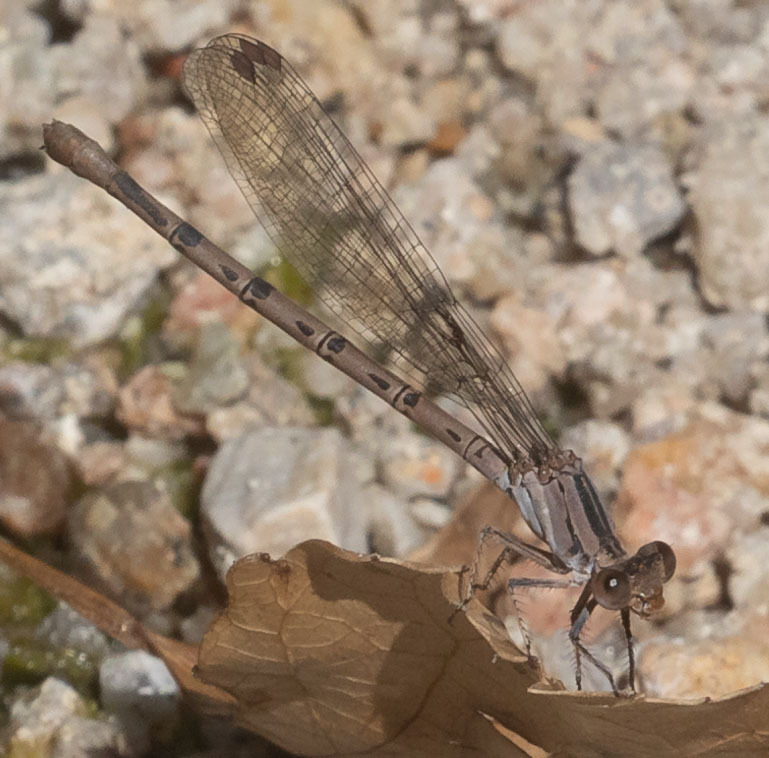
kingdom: Animalia
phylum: Arthropoda
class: Insecta
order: Odonata
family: Coenagrionidae
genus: Argia
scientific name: Argia vivida
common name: Vivid dancer
